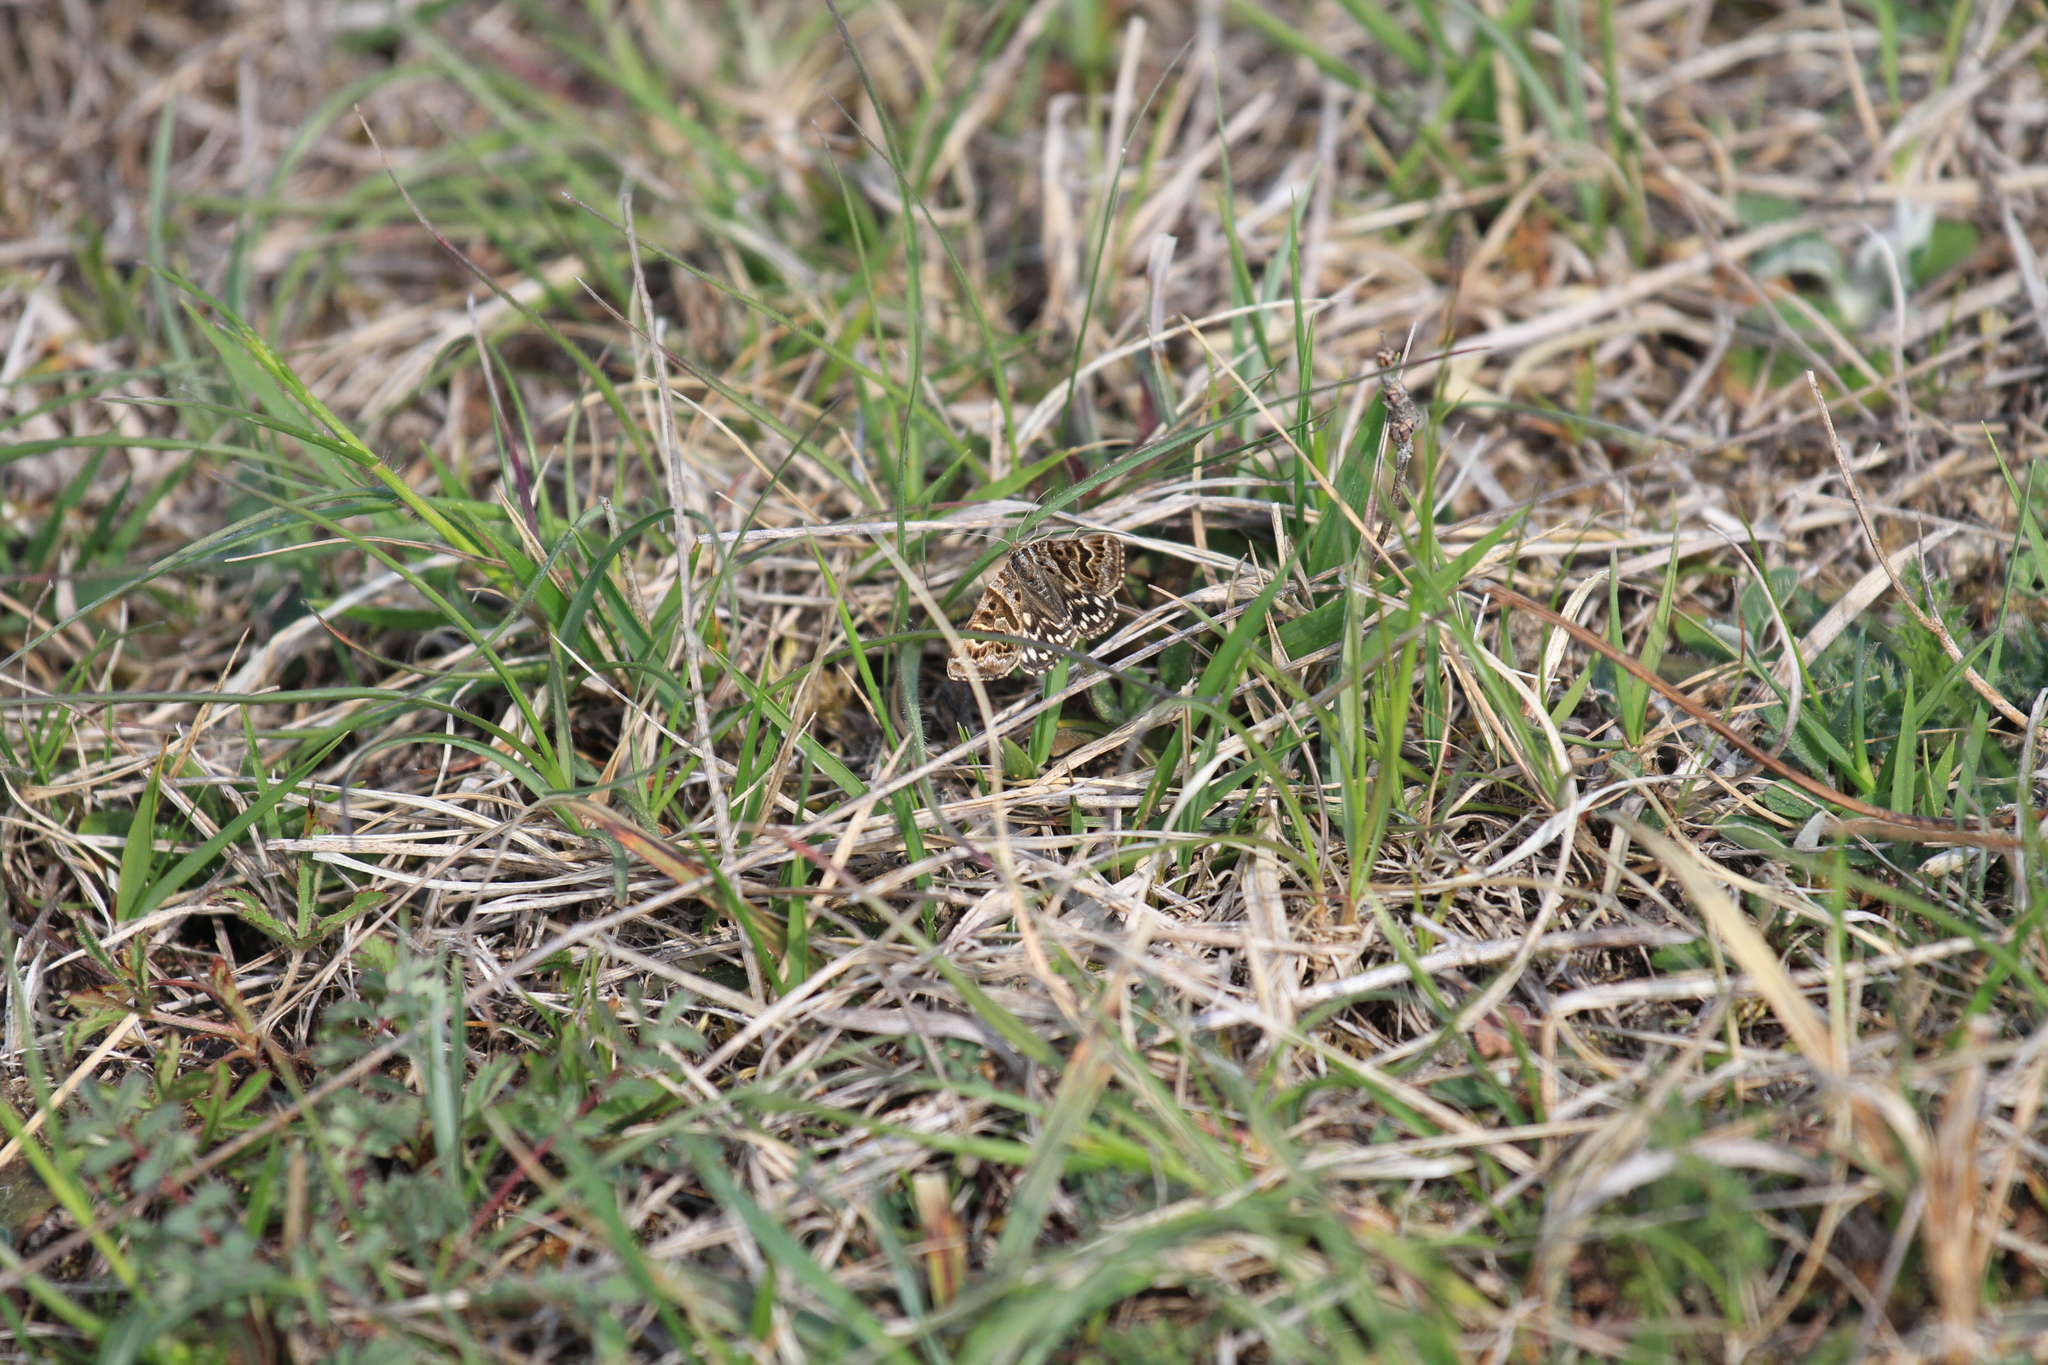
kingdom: Animalia
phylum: Arthropoda
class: Insecta
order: Lepidoptera
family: Erebidae
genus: Callistege
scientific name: Callistege mi
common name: Mother shipton
